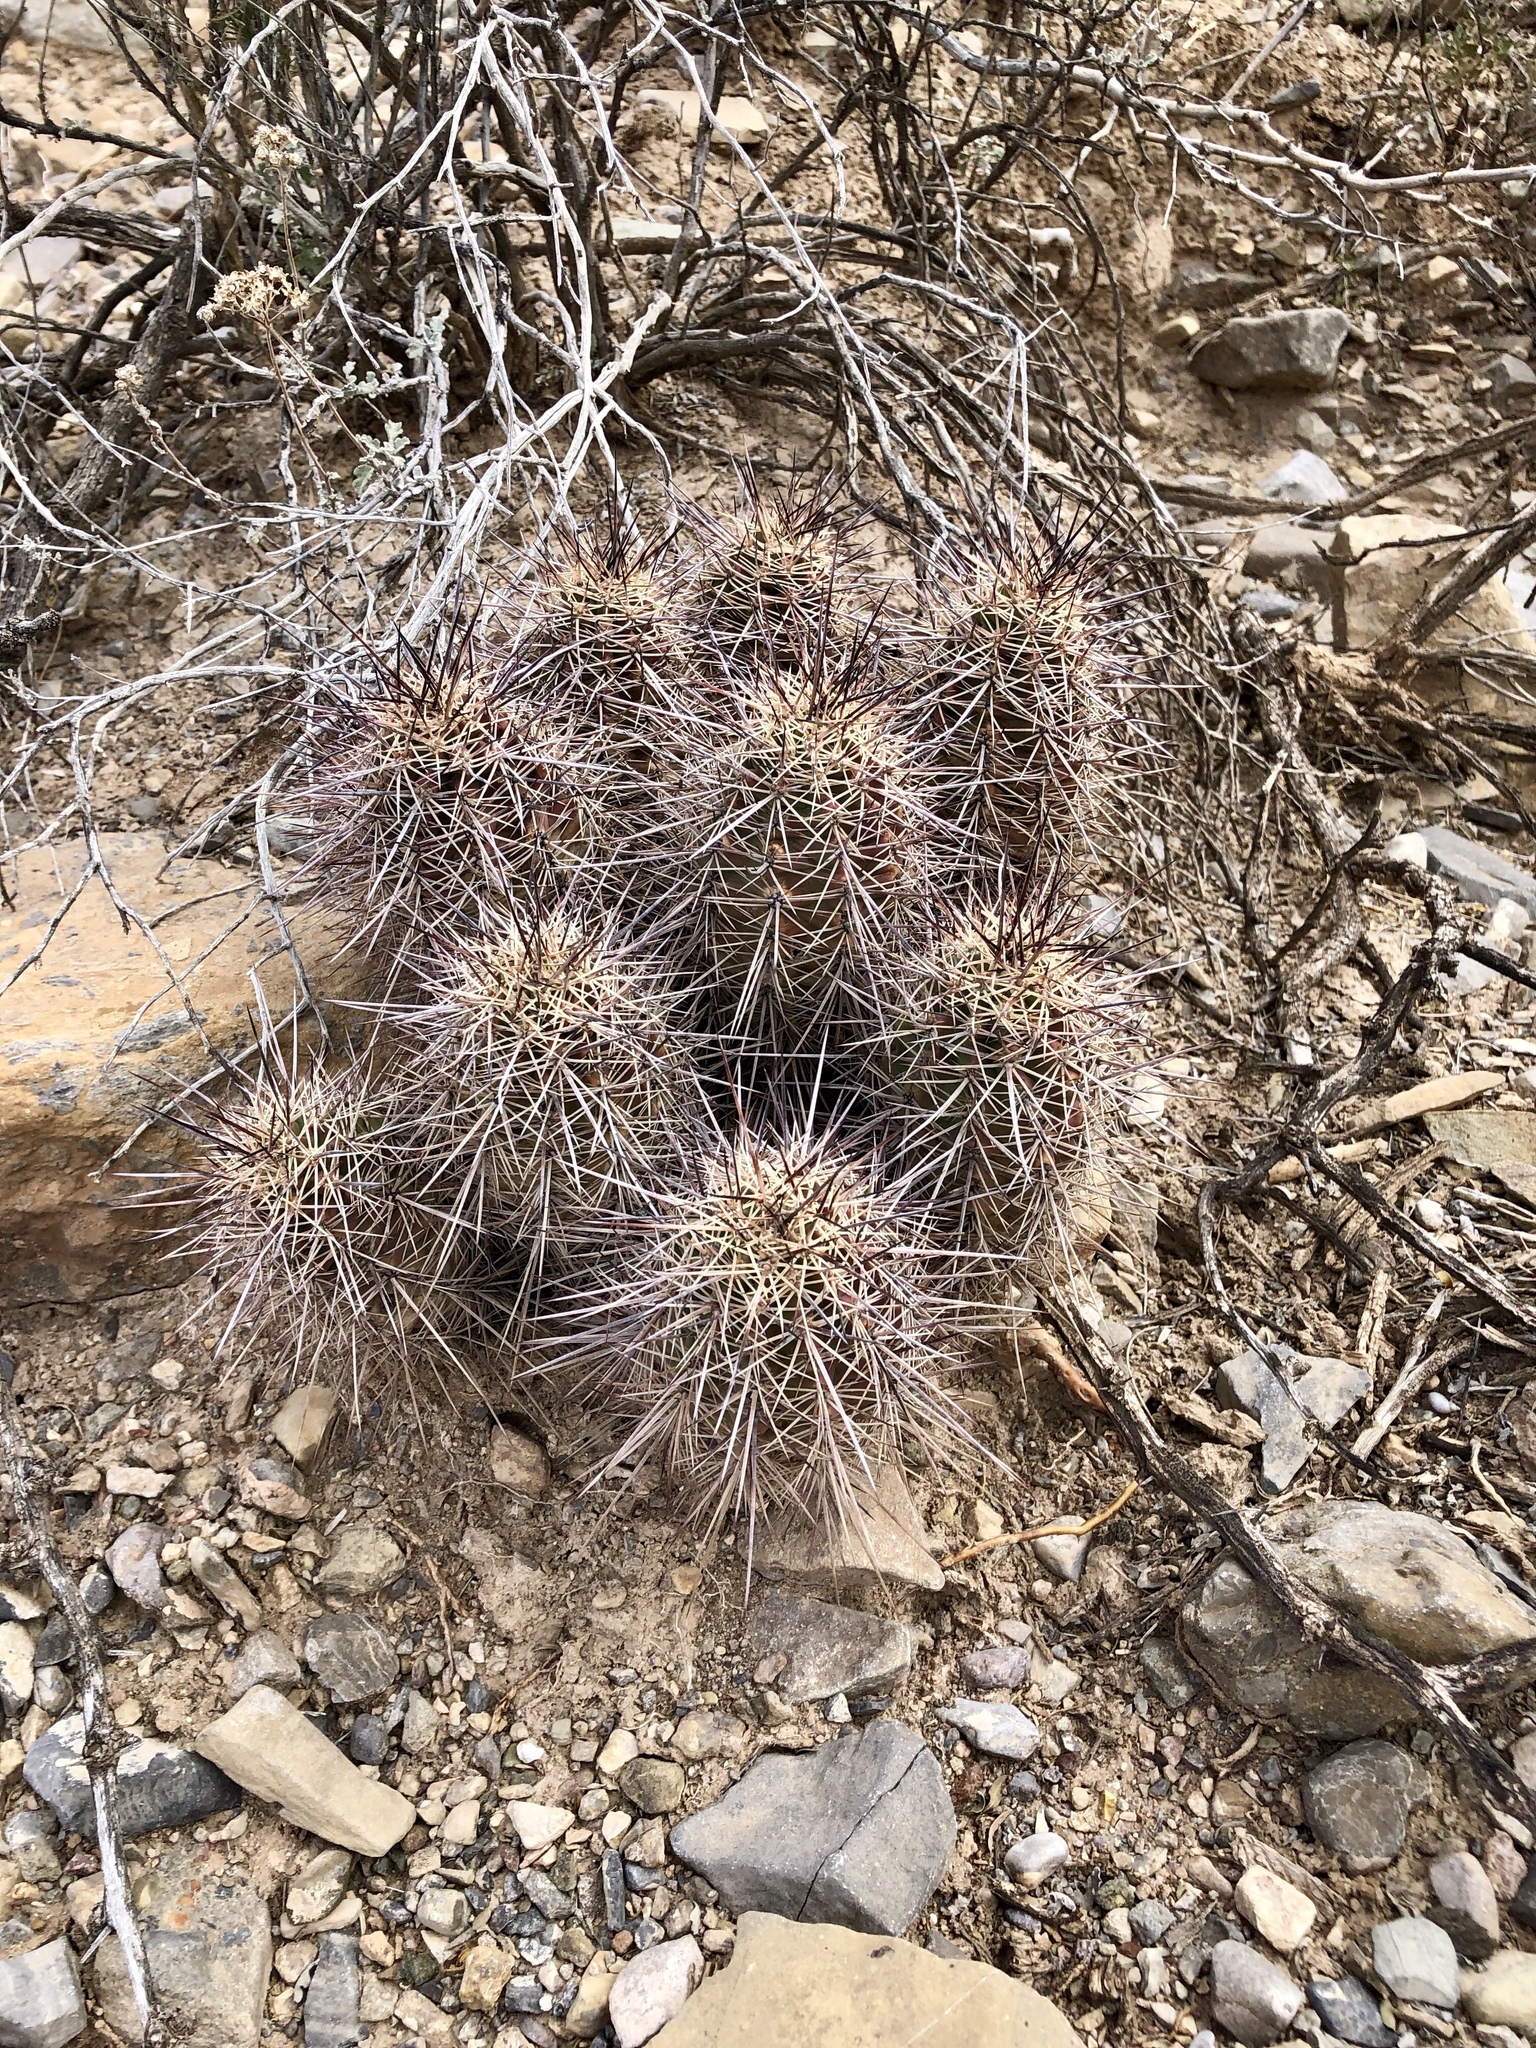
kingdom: Plantae
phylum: Tracheophyta
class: Magnoliopsida
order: Caryophyllales
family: Cactaceae
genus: Echinocereus
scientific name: Echinocereus coccineus
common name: Scarlet hedgehog cactus
